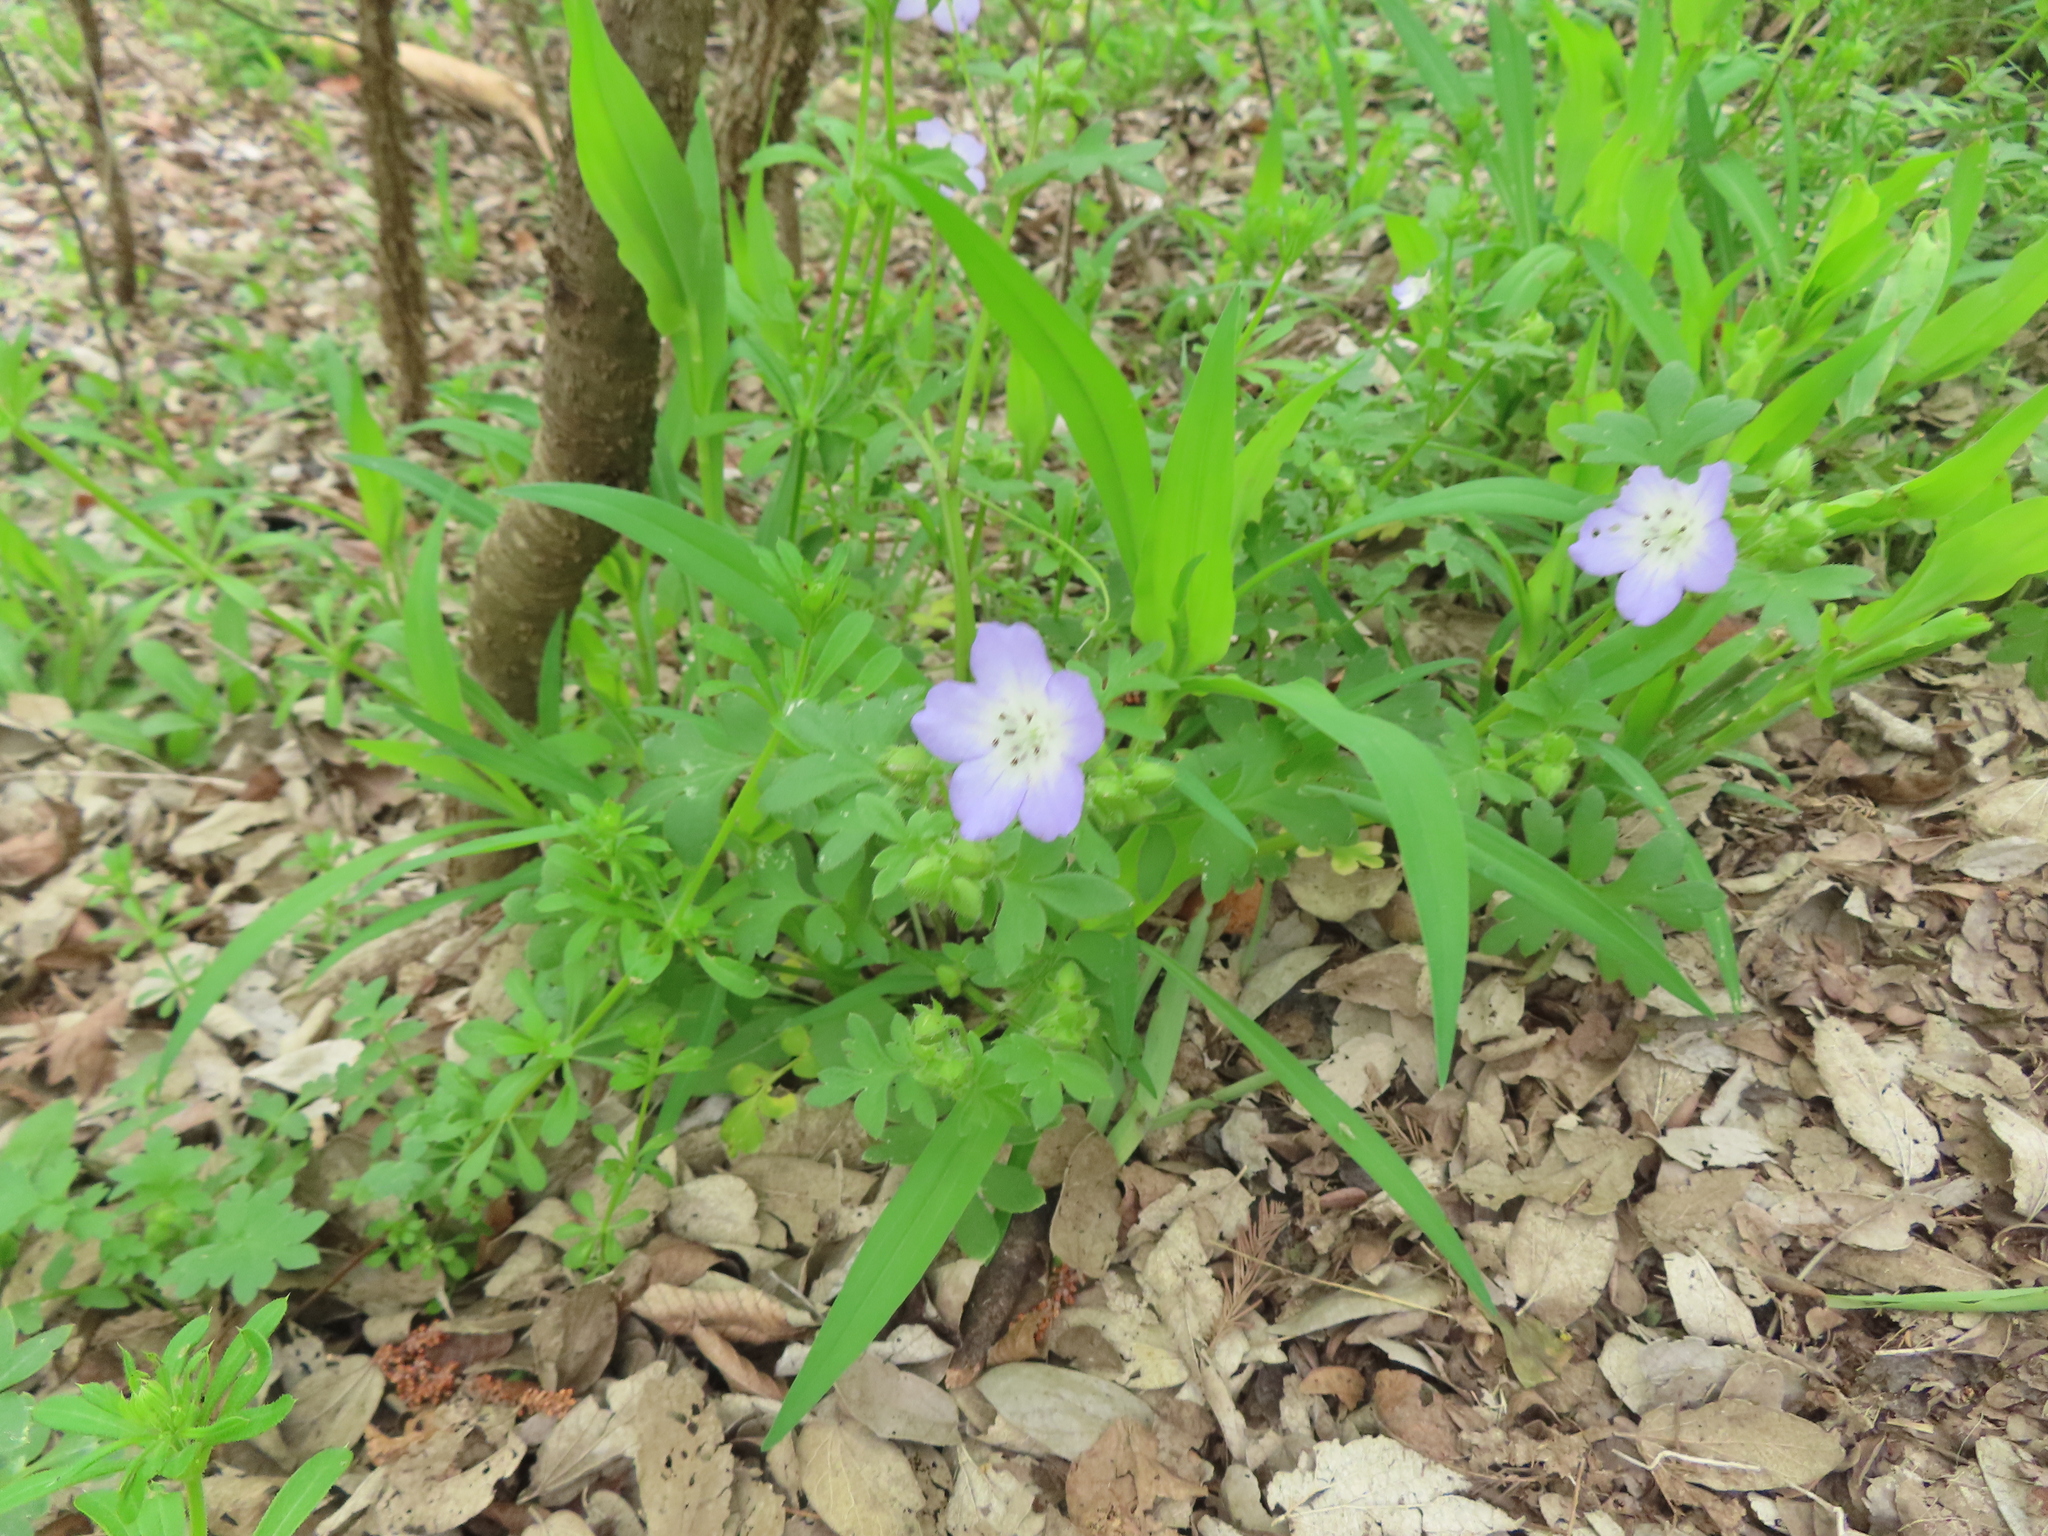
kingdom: Plantae
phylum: Tracheophyta
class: Magnoliopsida
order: Boraginales
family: Hydrophyllaceae
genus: Nemophila
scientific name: Nemophila phacelioides
